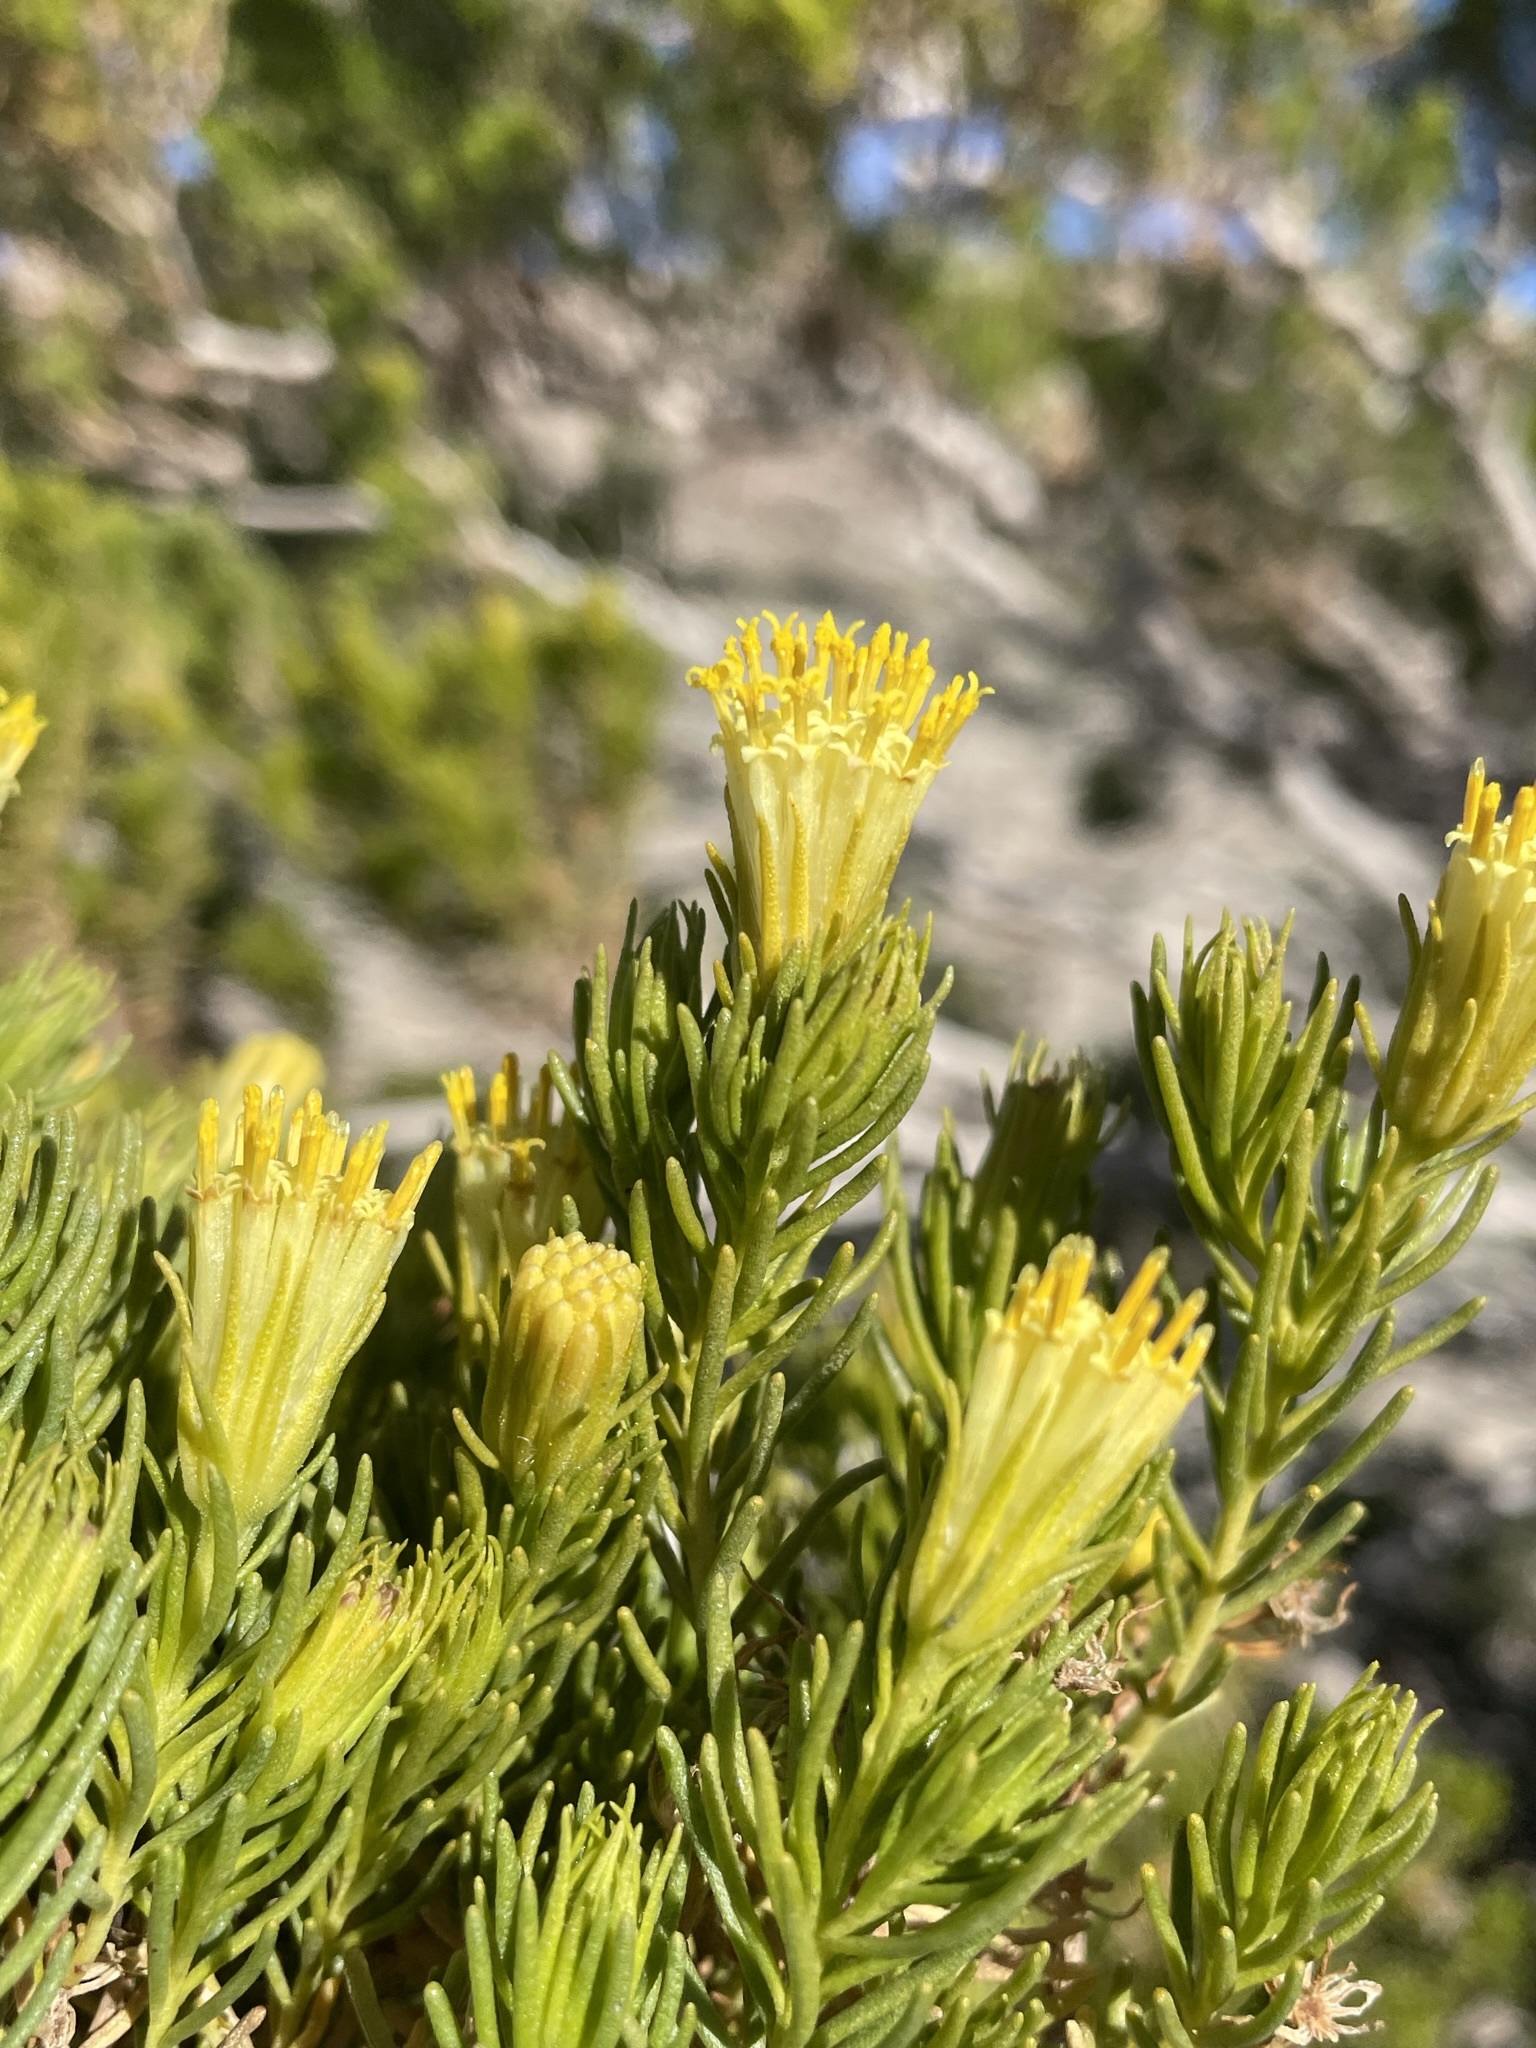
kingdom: Plantae
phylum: Tracheophyta
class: Magnoliopsida
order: Asterales
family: Asteraceae
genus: Peucephyllum
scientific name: Peucephyllum schottii
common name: Pygmy-cedar
